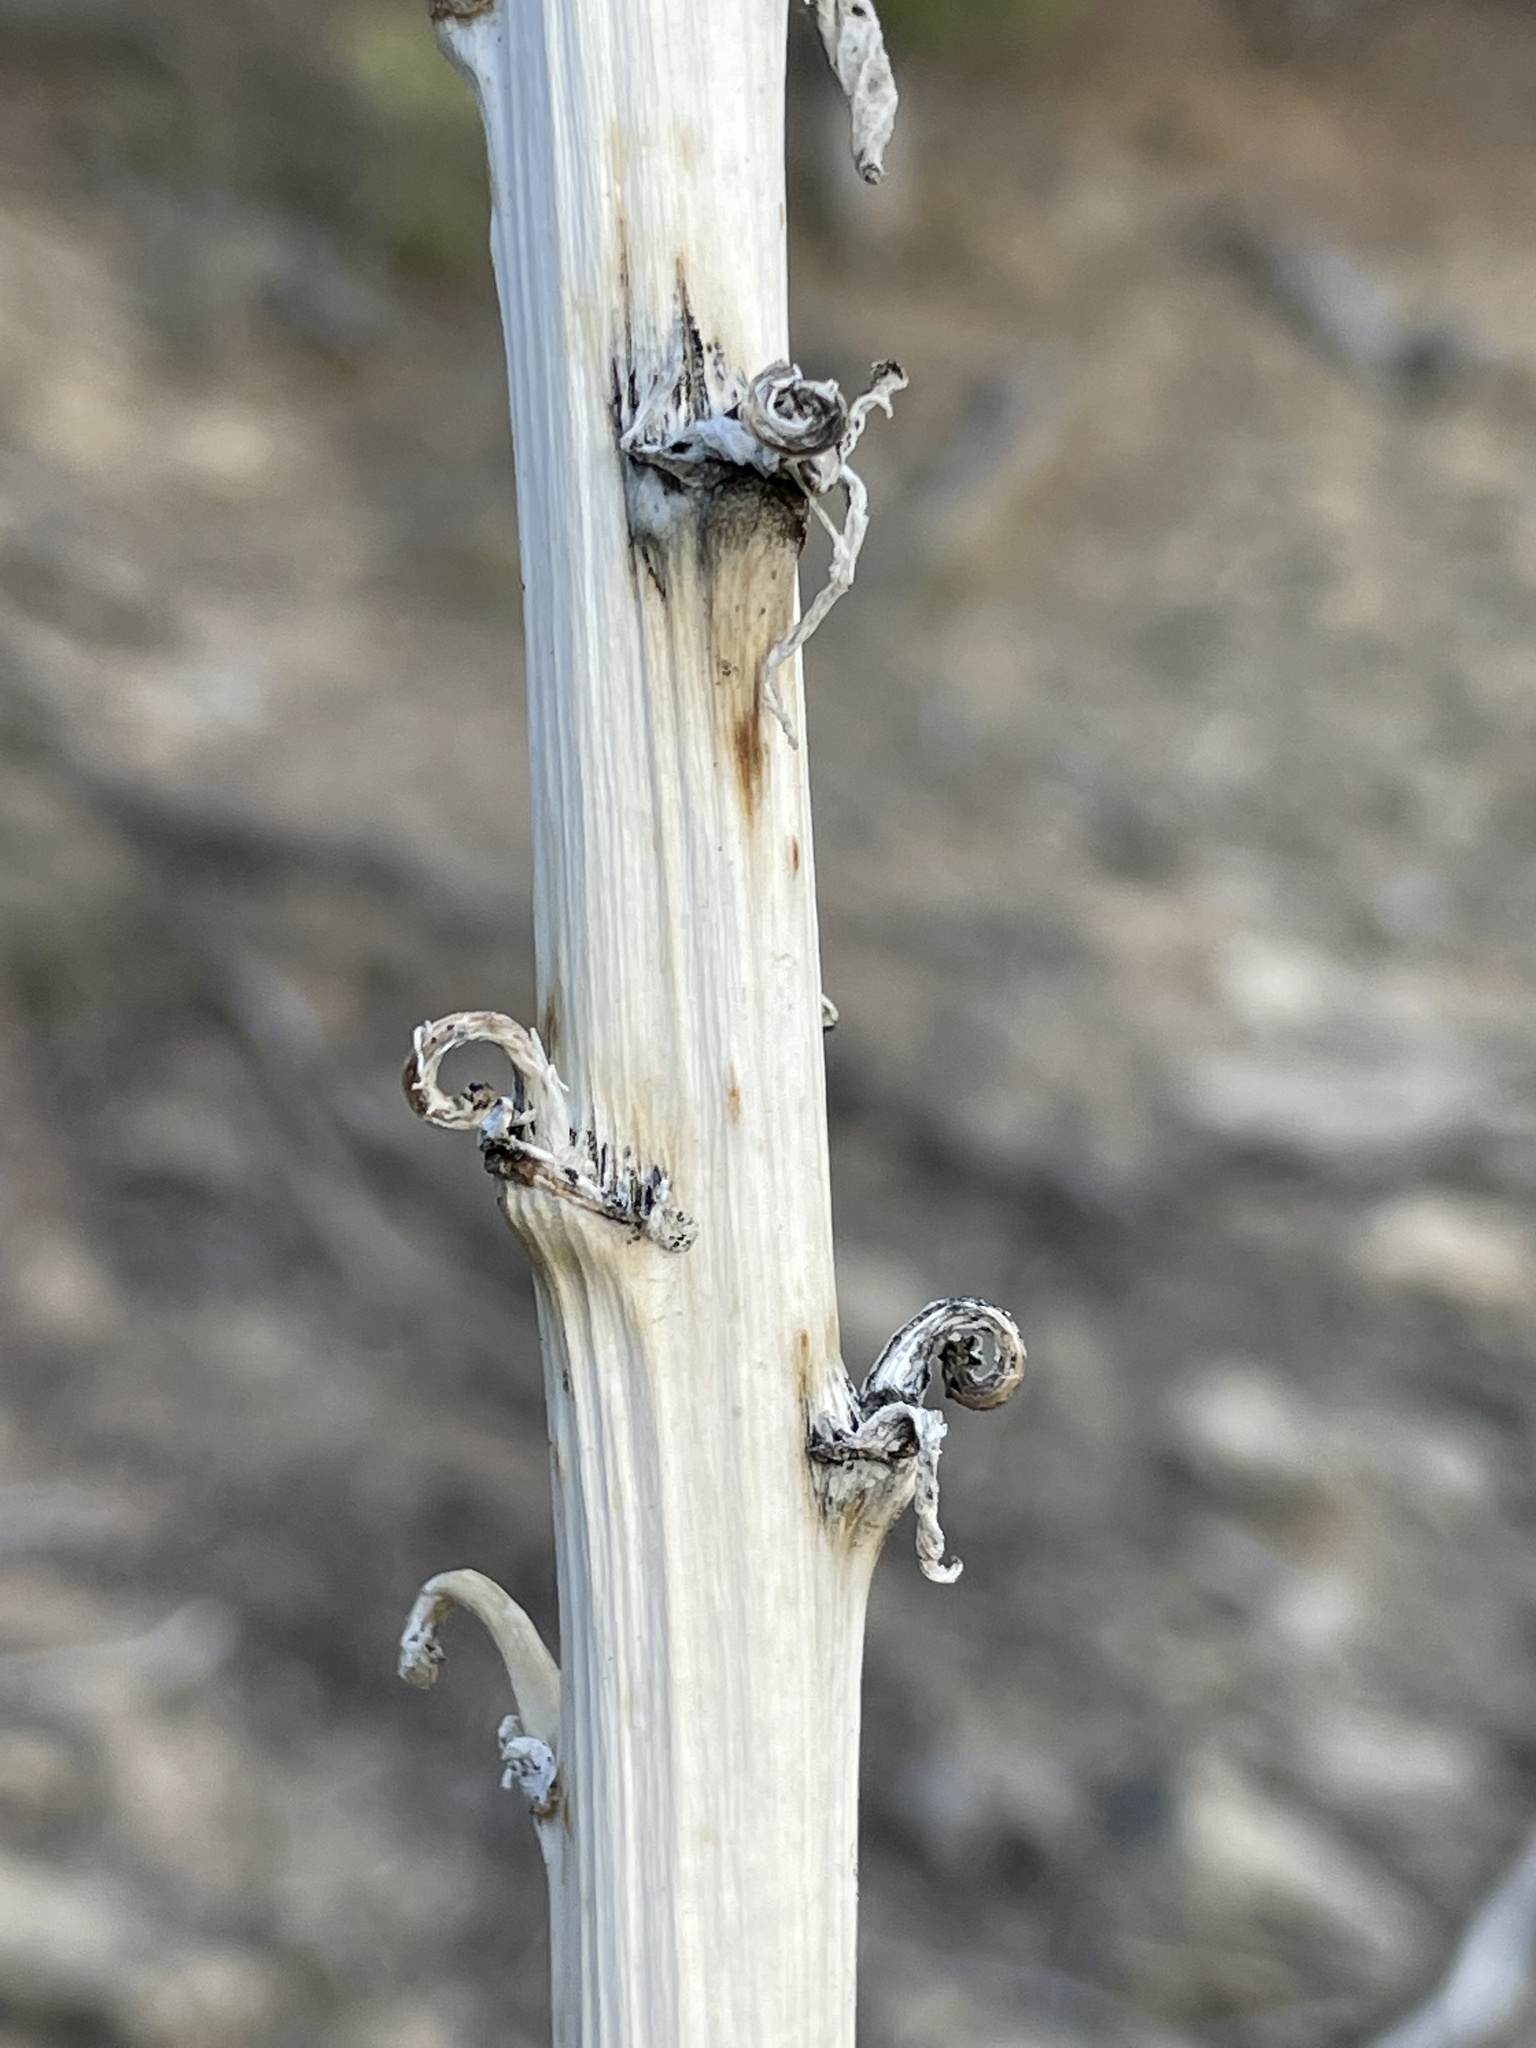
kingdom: Plantae
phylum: Tracheophyta
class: Liliopsida
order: Asparagales
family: Asparagaceae
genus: Yucca
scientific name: Yucca baileyi
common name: Alpine yucca
